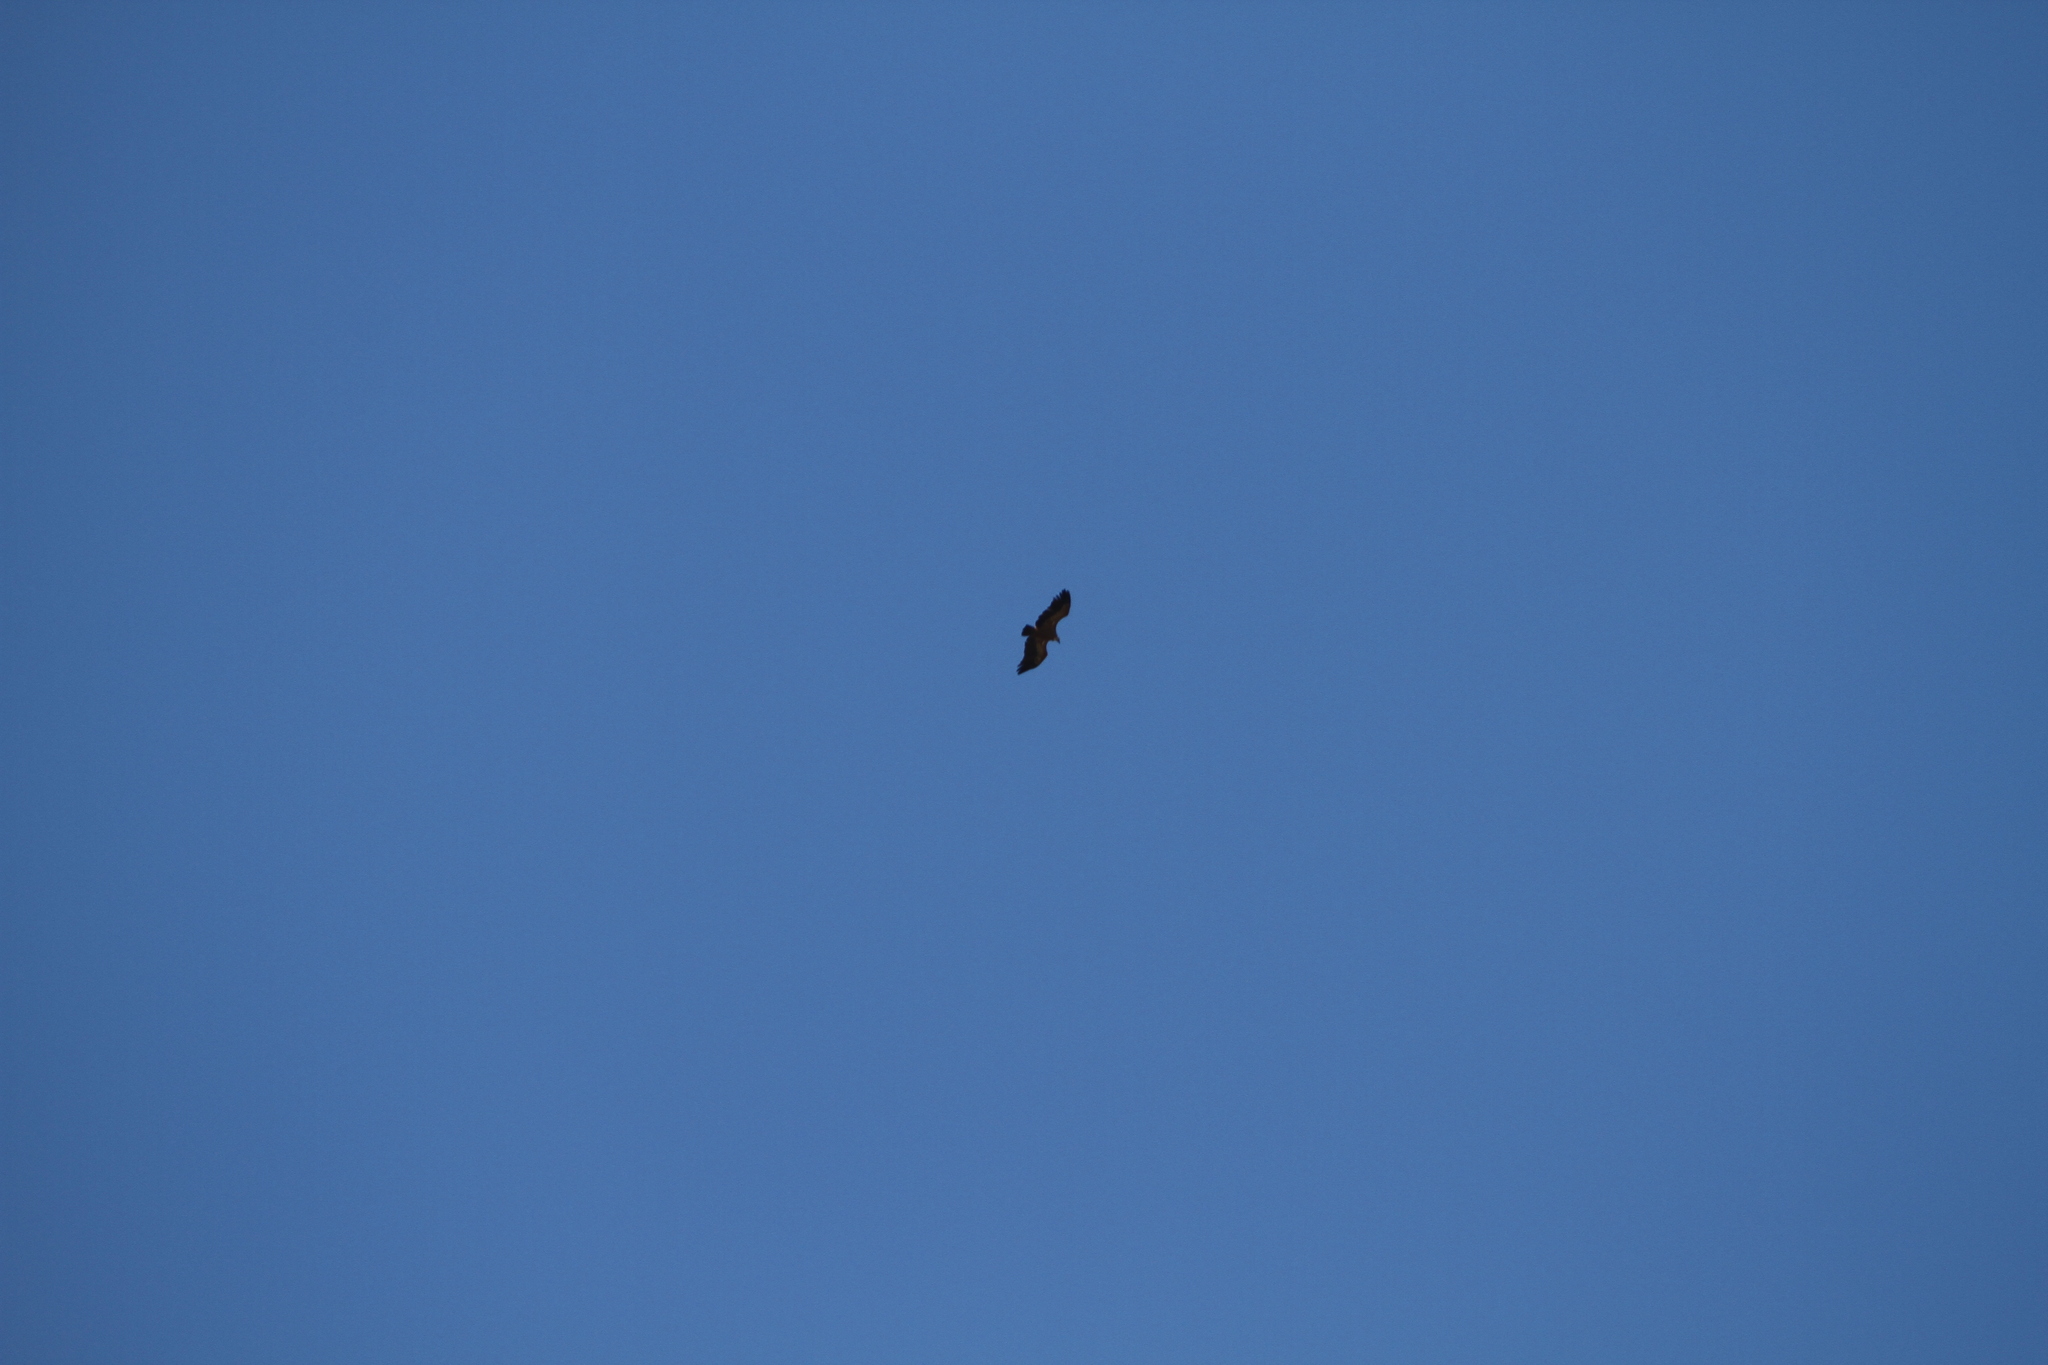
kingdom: Animalia
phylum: Chordata
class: Aves
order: Accipitriformes
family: Accipitridae
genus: Gyps
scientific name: Gyps fulvus
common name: Griffon vulture
